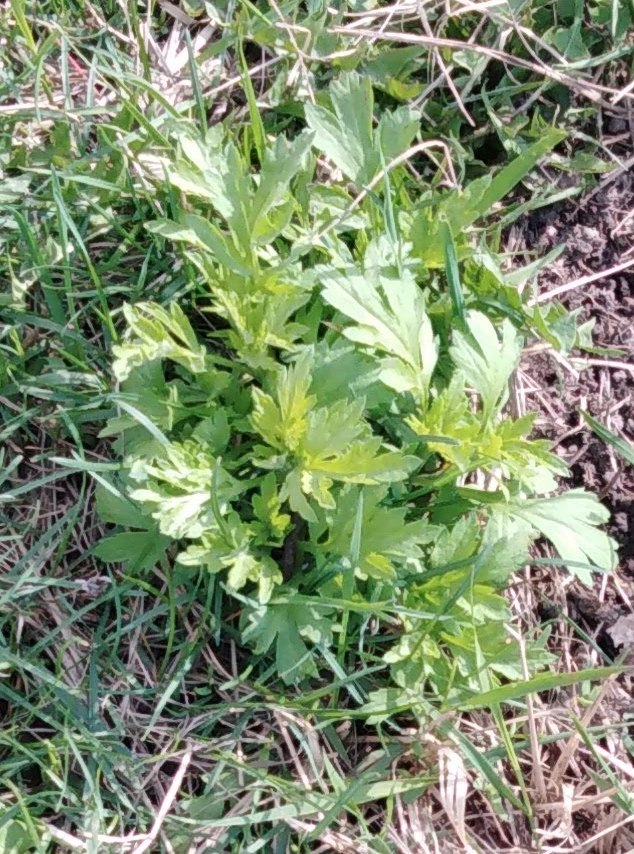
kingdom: Plantae
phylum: Tracheophyta
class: Magnoliopsida
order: Asterales
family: Asteraceae
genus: Artemisia
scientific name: Artemisia vulgaris
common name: Mugwort
